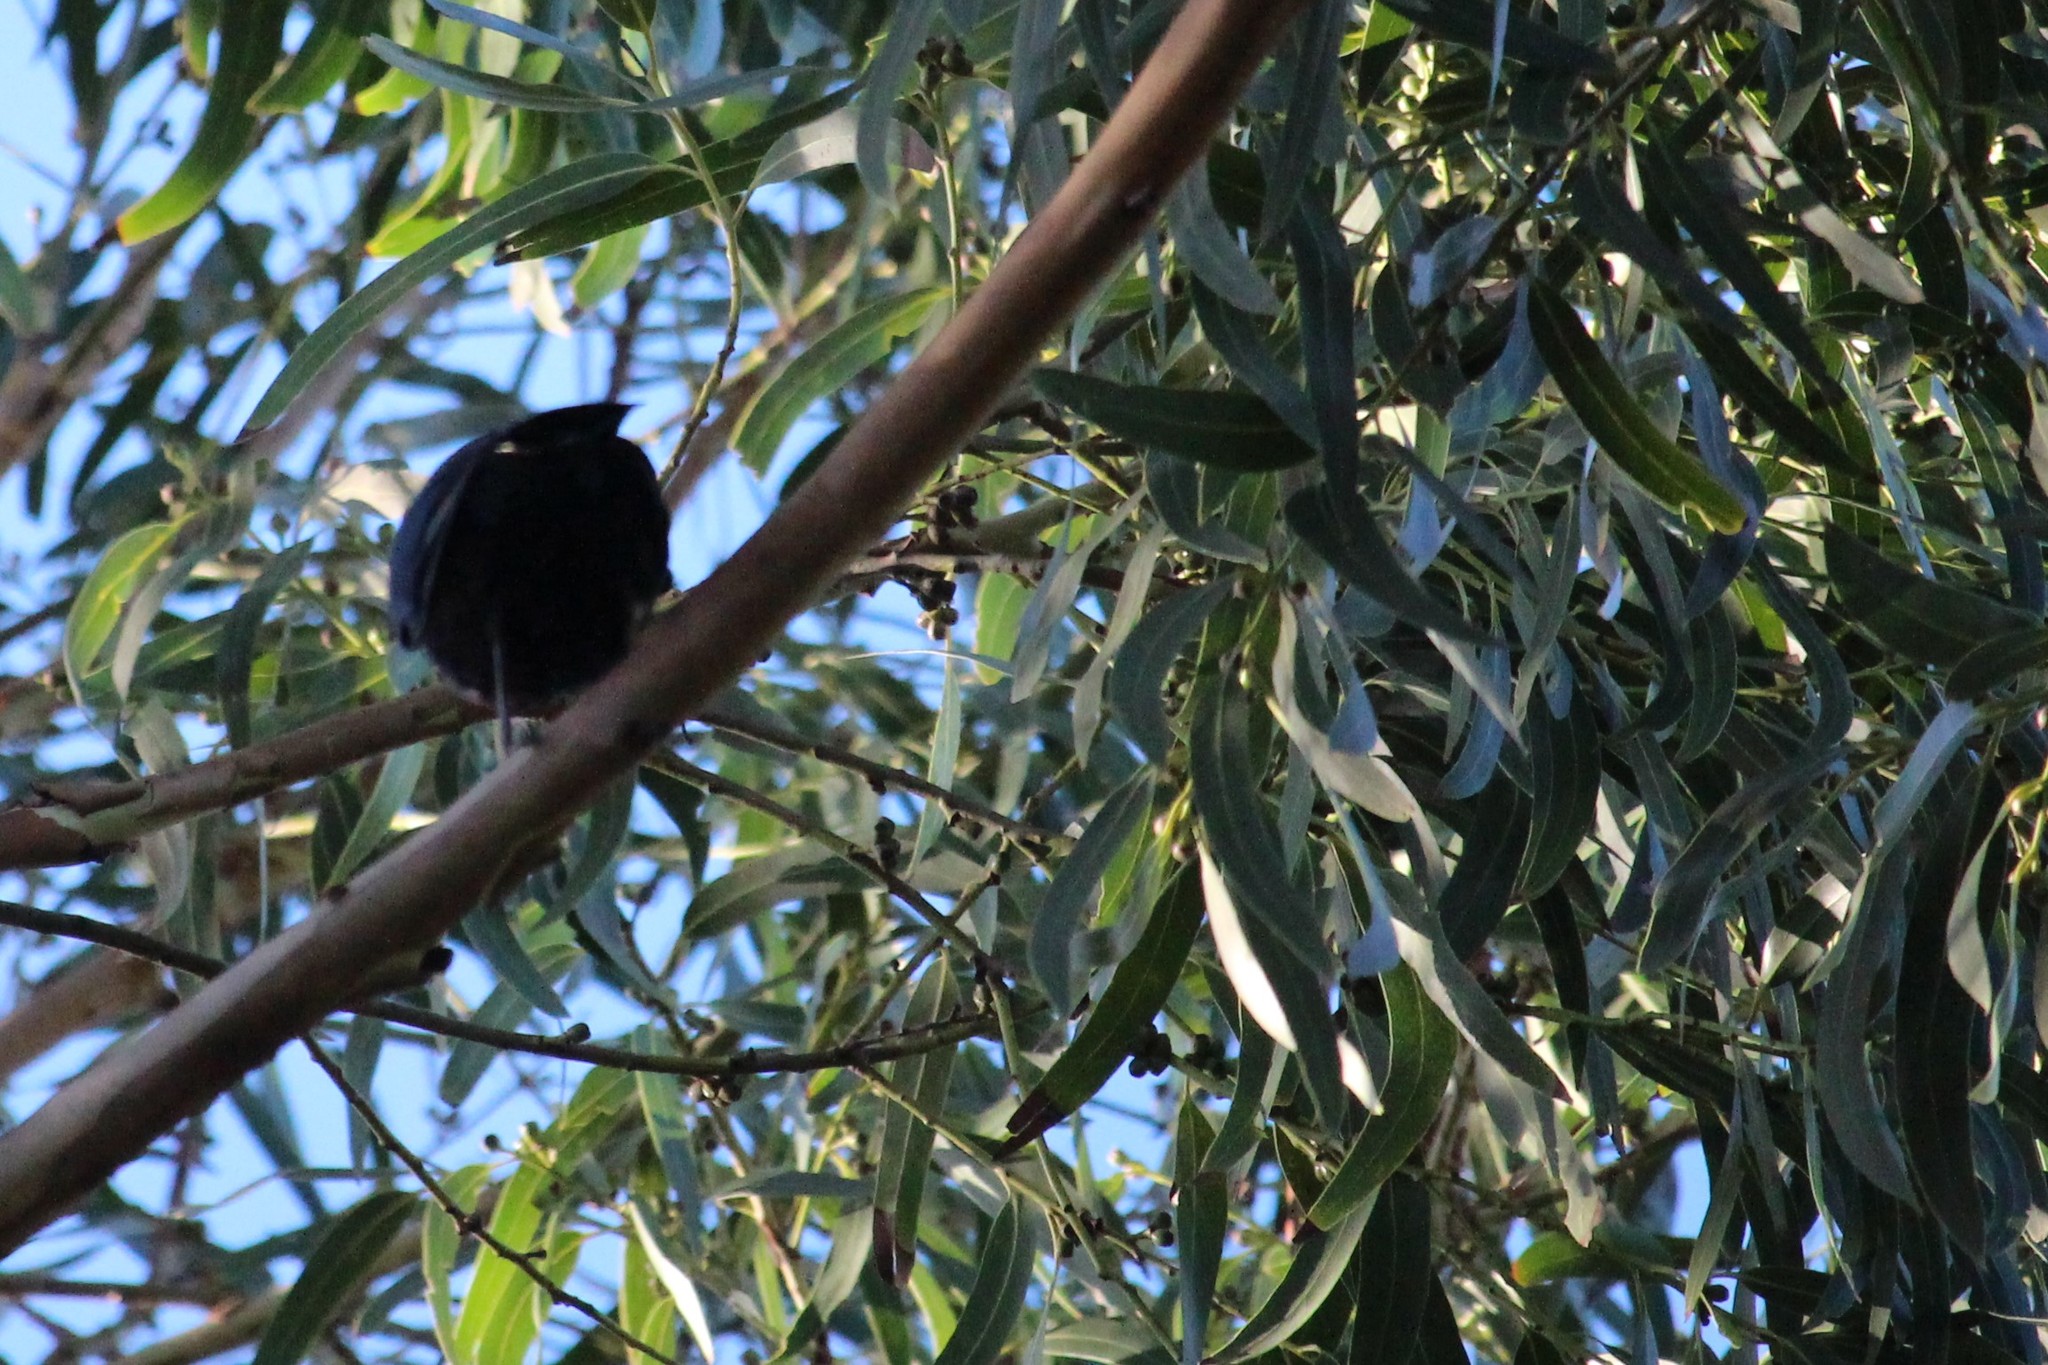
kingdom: Animalia
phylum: Chordata
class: Aves
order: Passeriformes
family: Meliphagidae
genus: Prosthemadera
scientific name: Prosthemadera novaeseelandiae
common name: Tui
